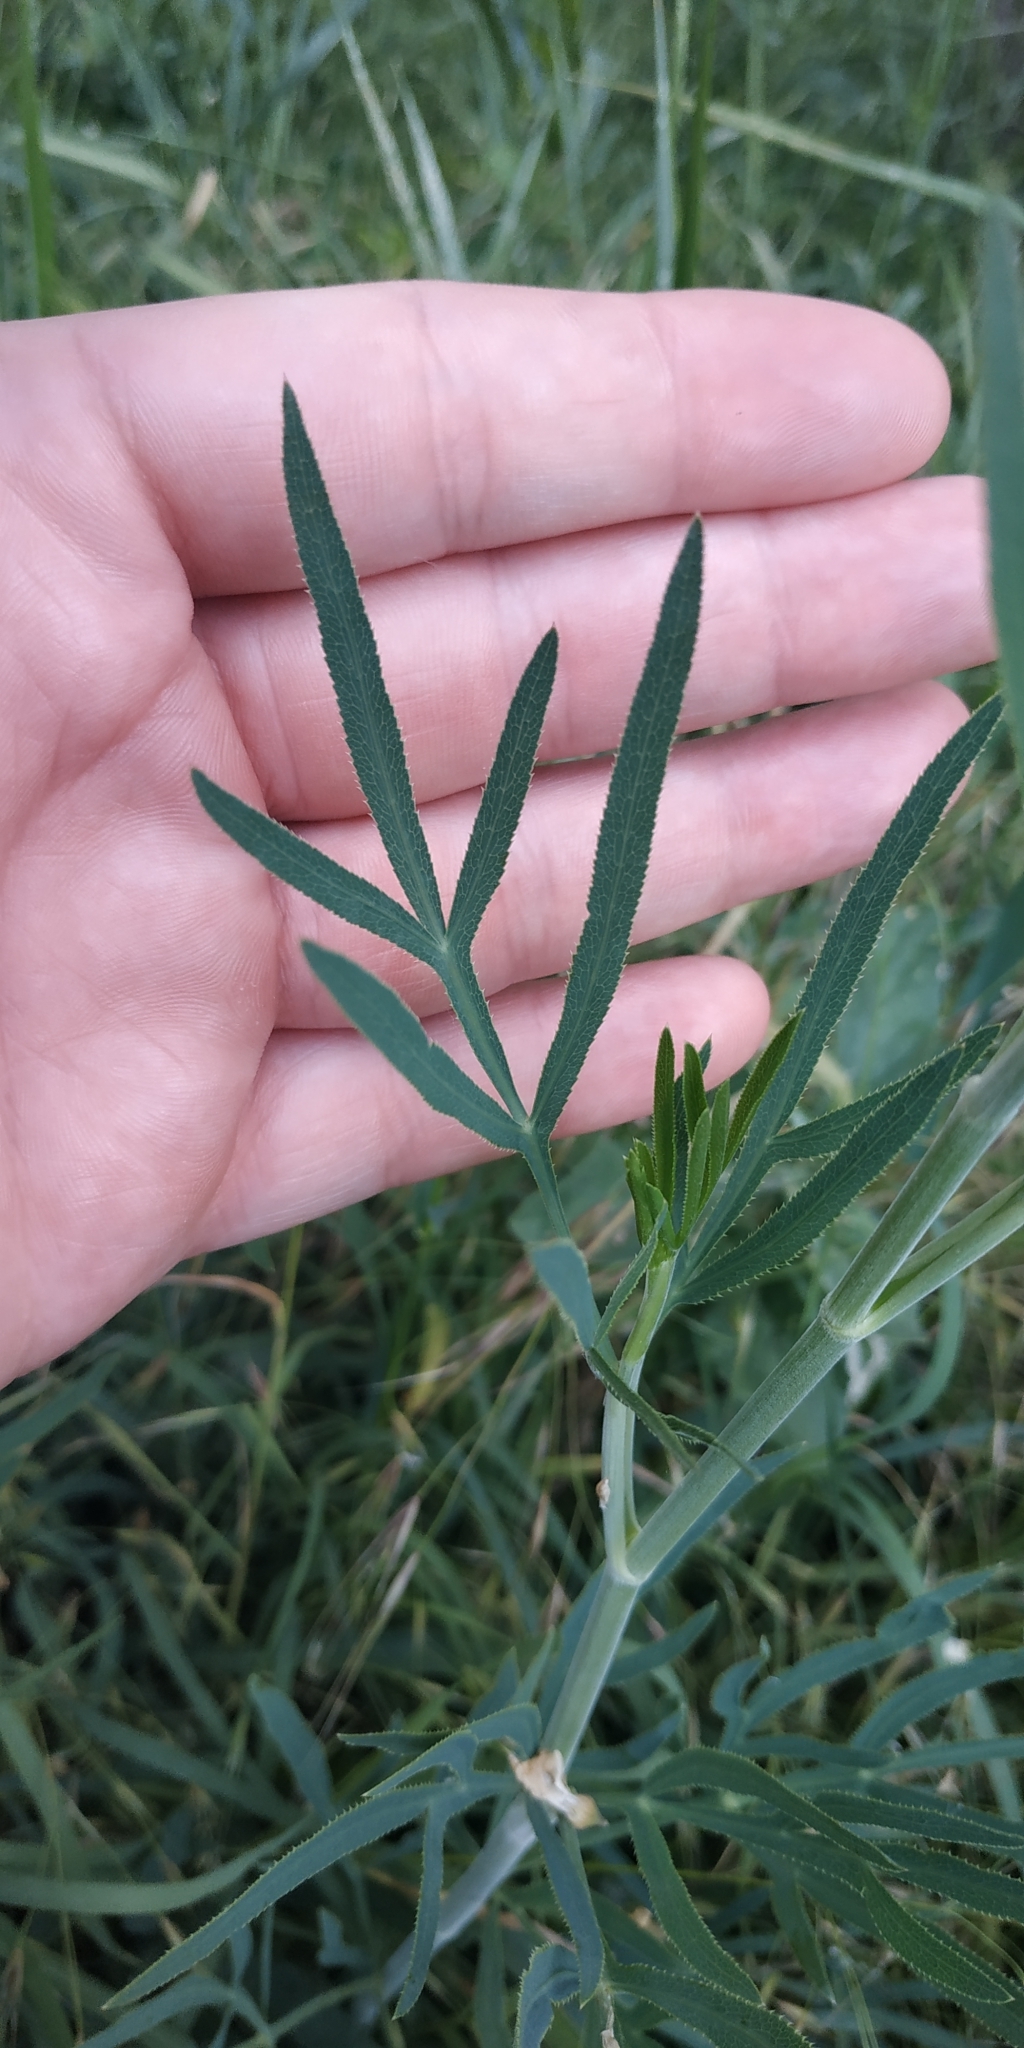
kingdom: Plantae
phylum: Tracheophyta
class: Magnoliopsida
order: Apiales
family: Apiaceae
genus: Falcaria
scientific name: Falcaria vulgaris
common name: Longleaf
